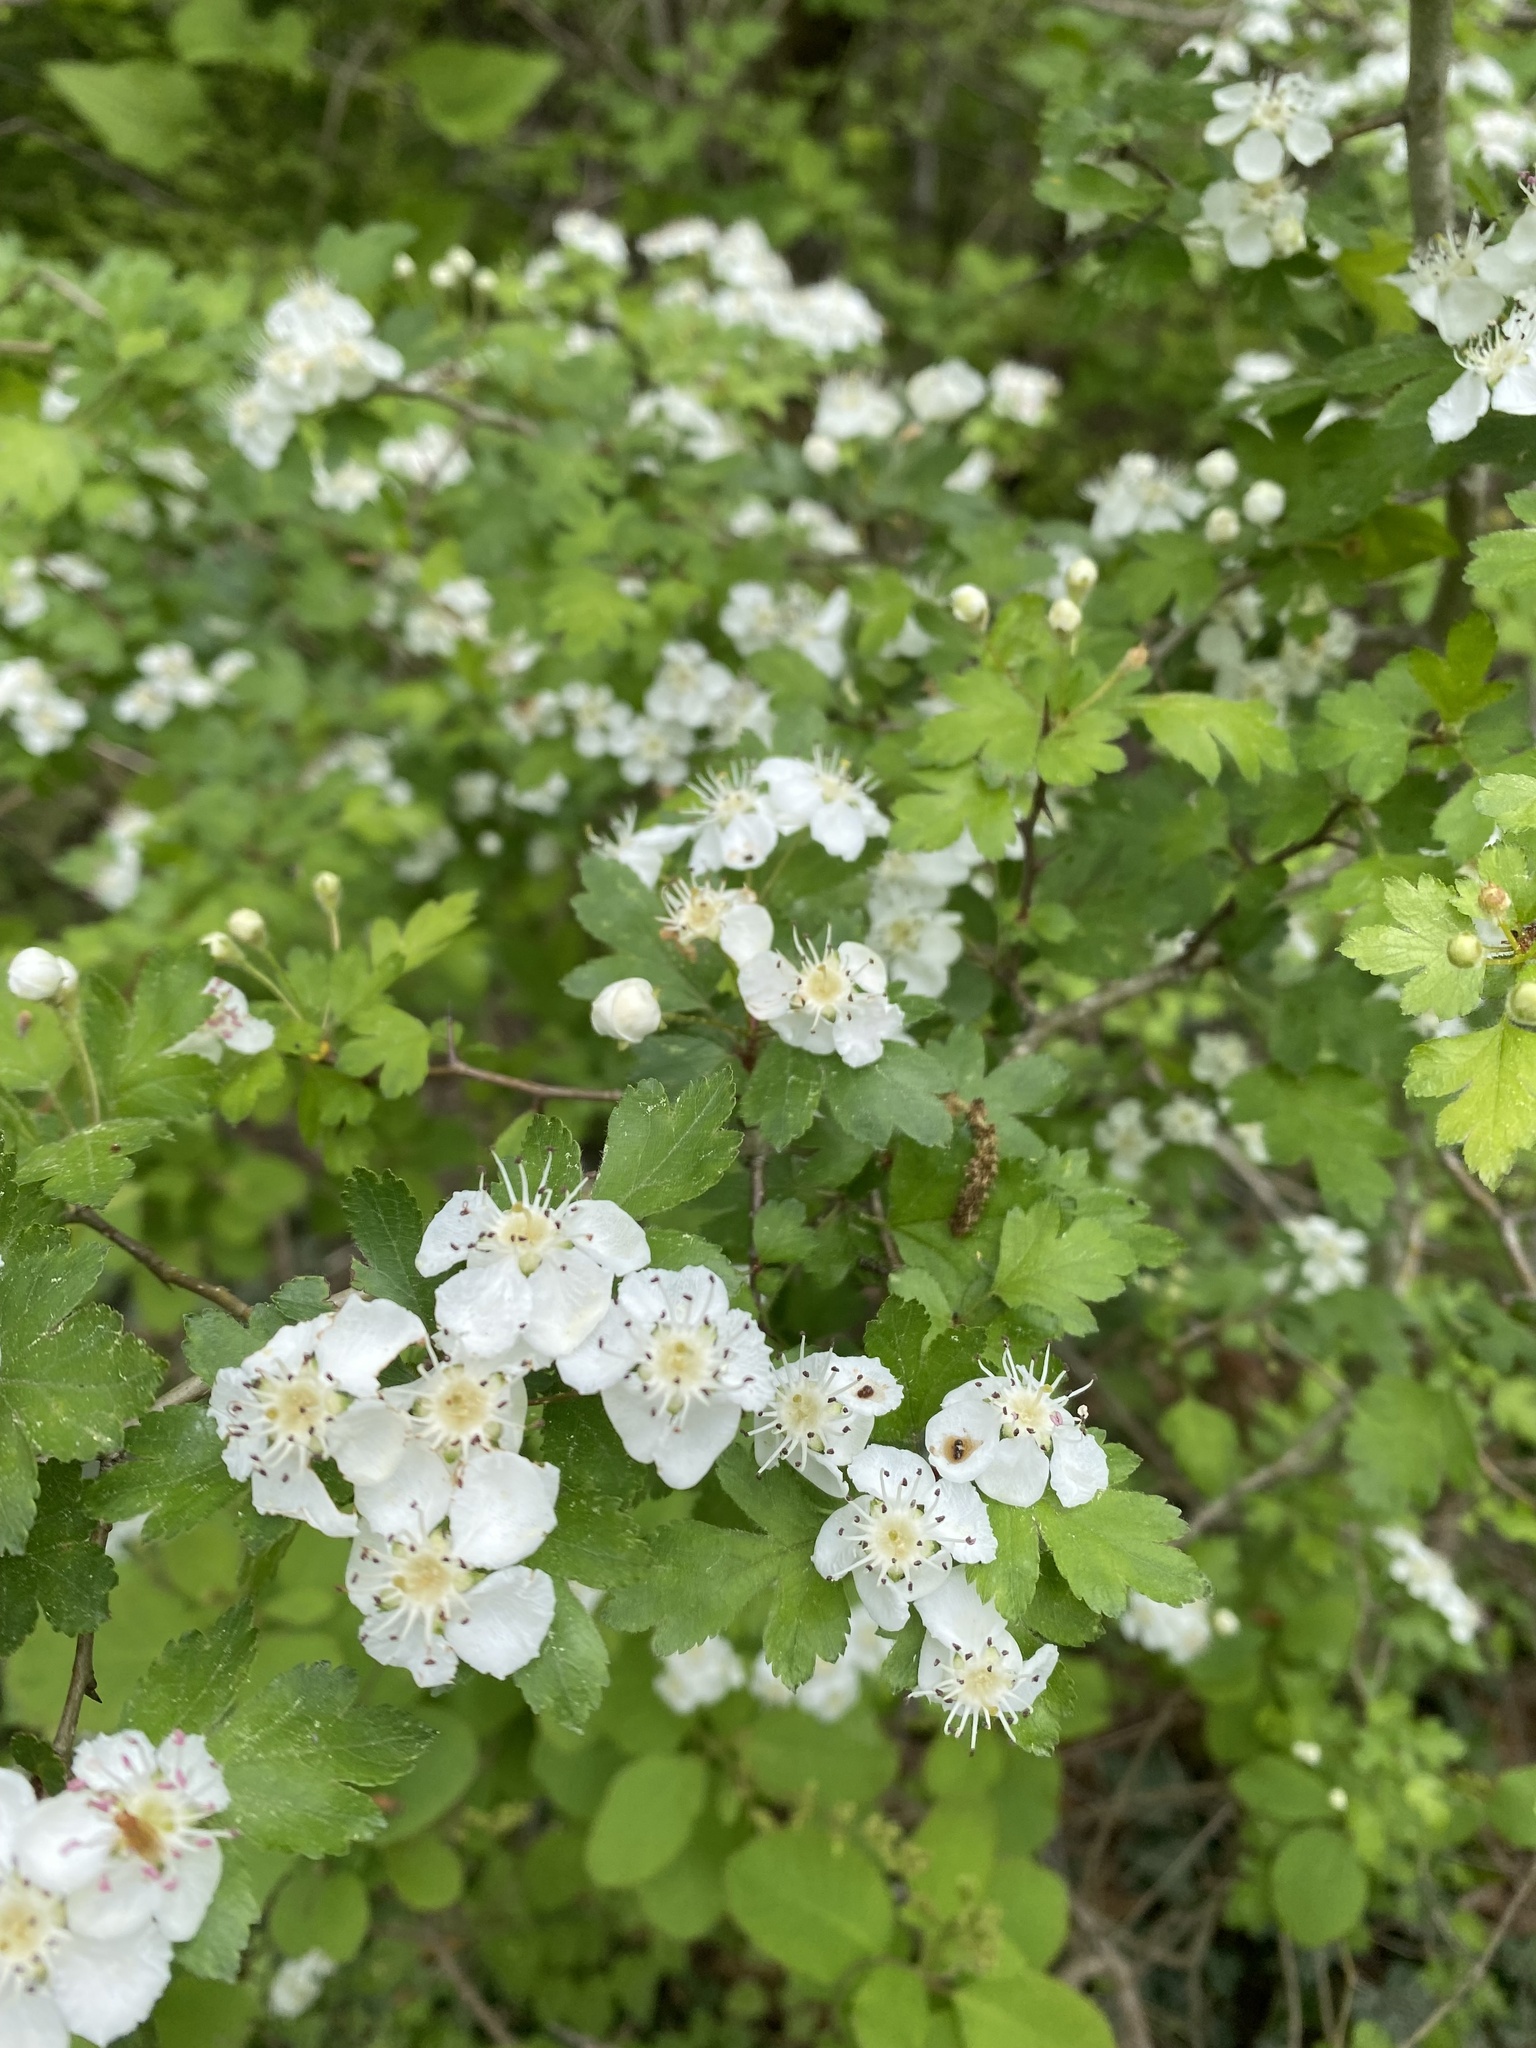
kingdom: Plantae
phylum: Tracheophyta
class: Magnoliopsida
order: Rosales
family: Rosaceae
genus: Crataegus
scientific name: Crataegus monogyna
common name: Hawthorn
